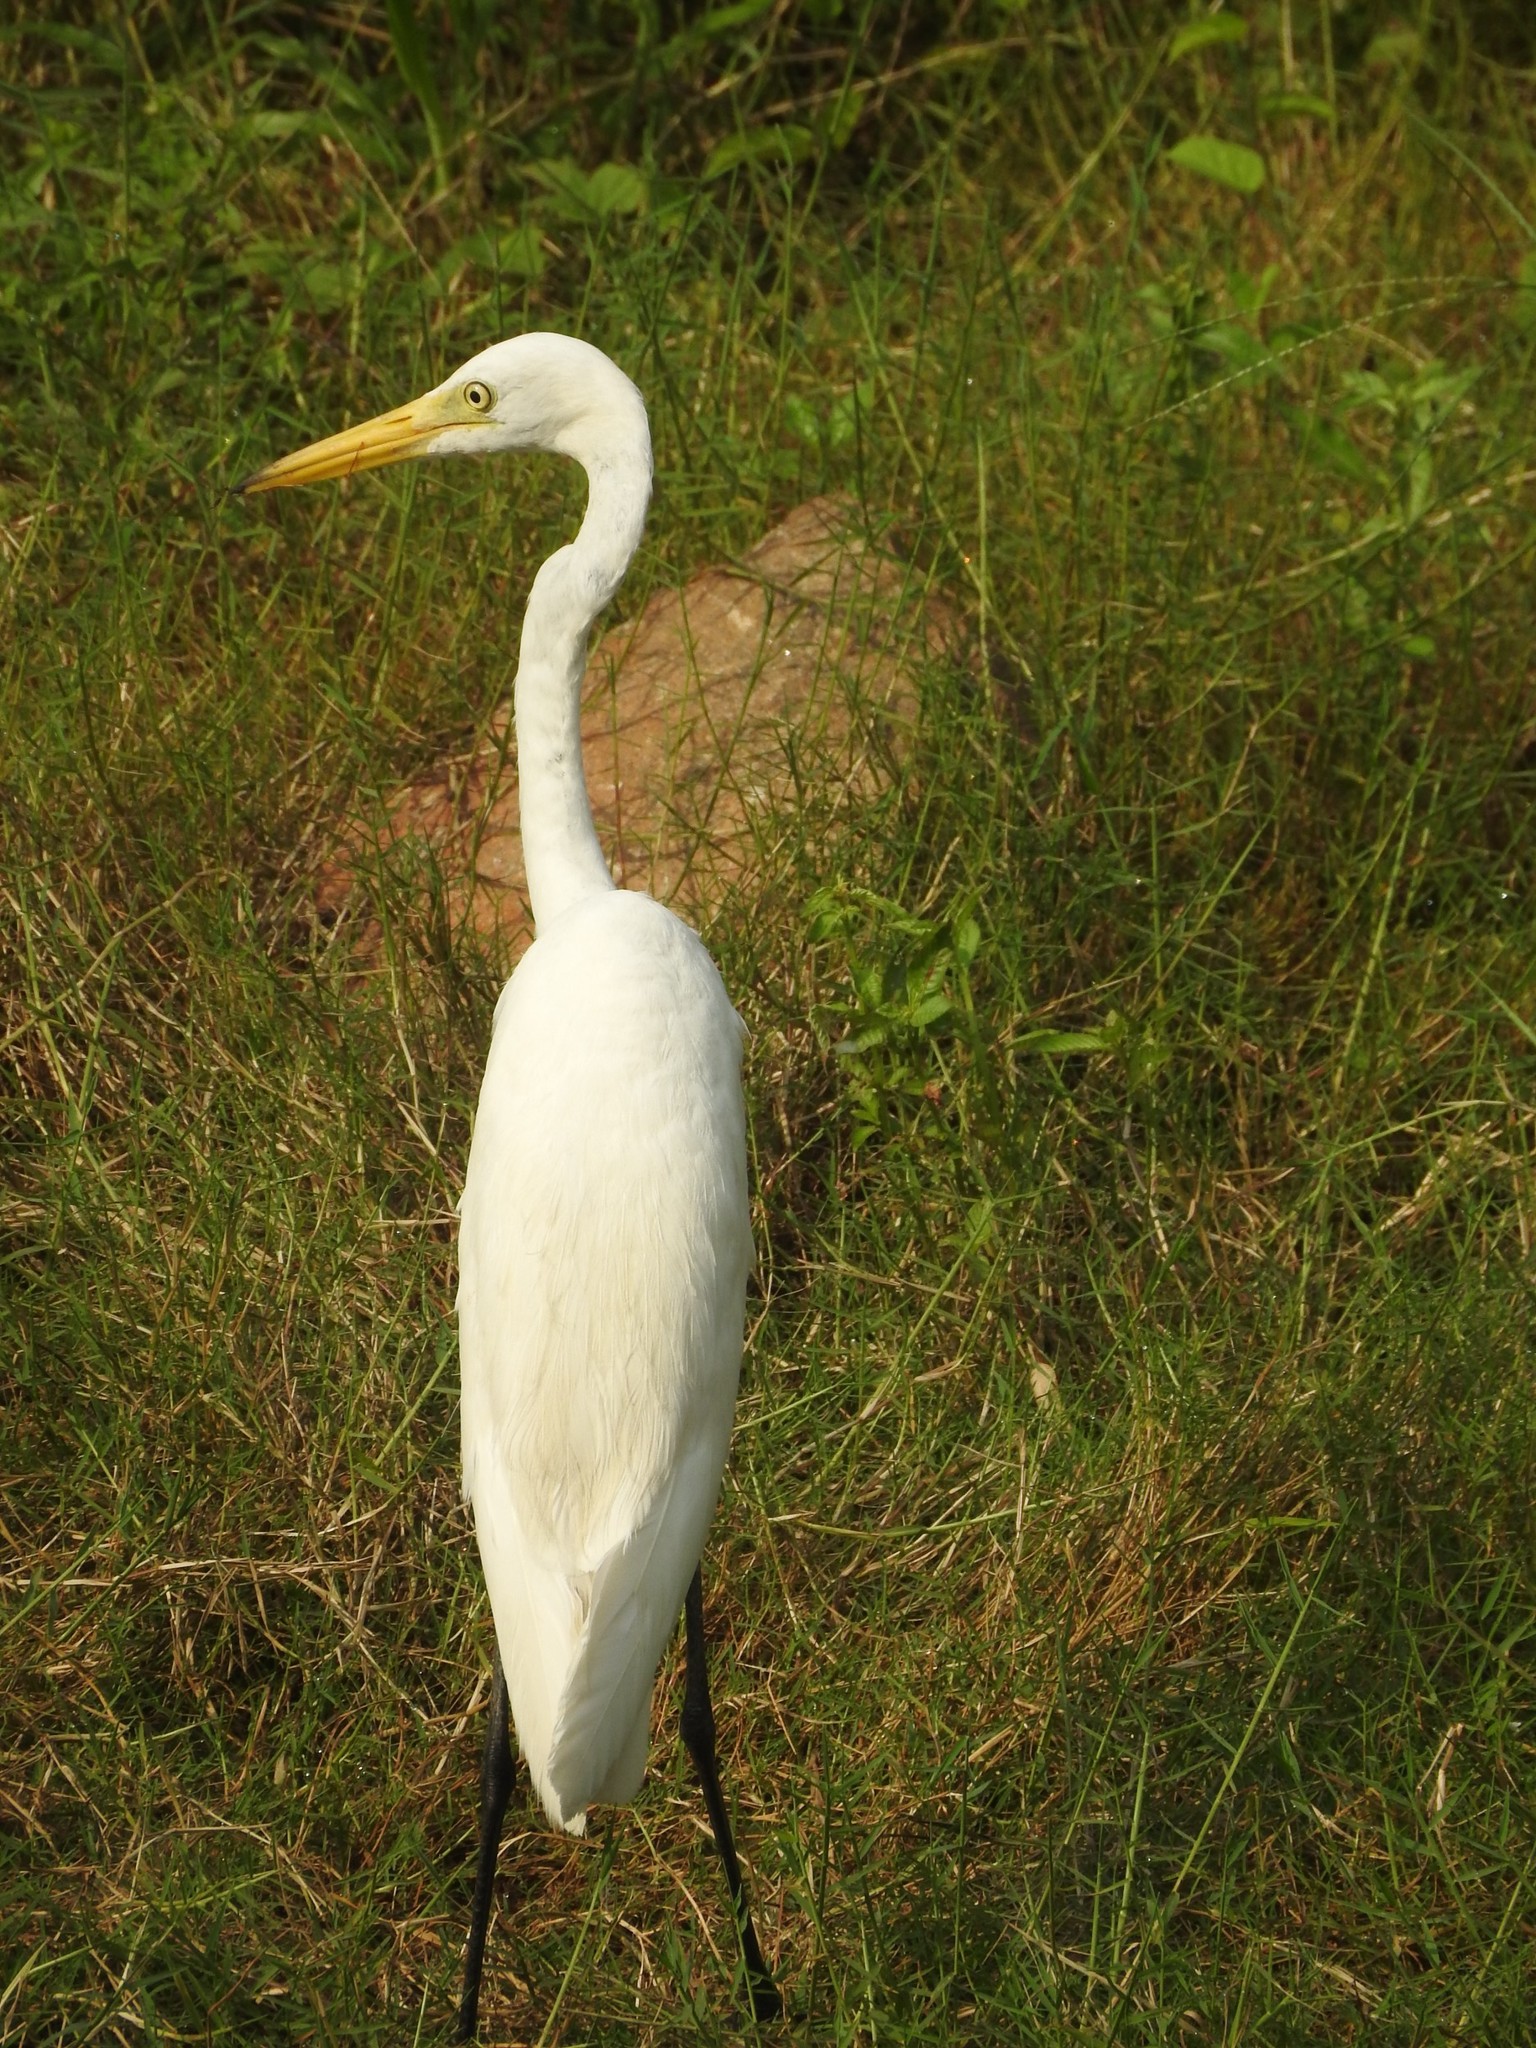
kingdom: Animalia
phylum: Chordata
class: Aves
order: Pelecaniformes
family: Ardeidae
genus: Ardea
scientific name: Ardea alba
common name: Great egret
